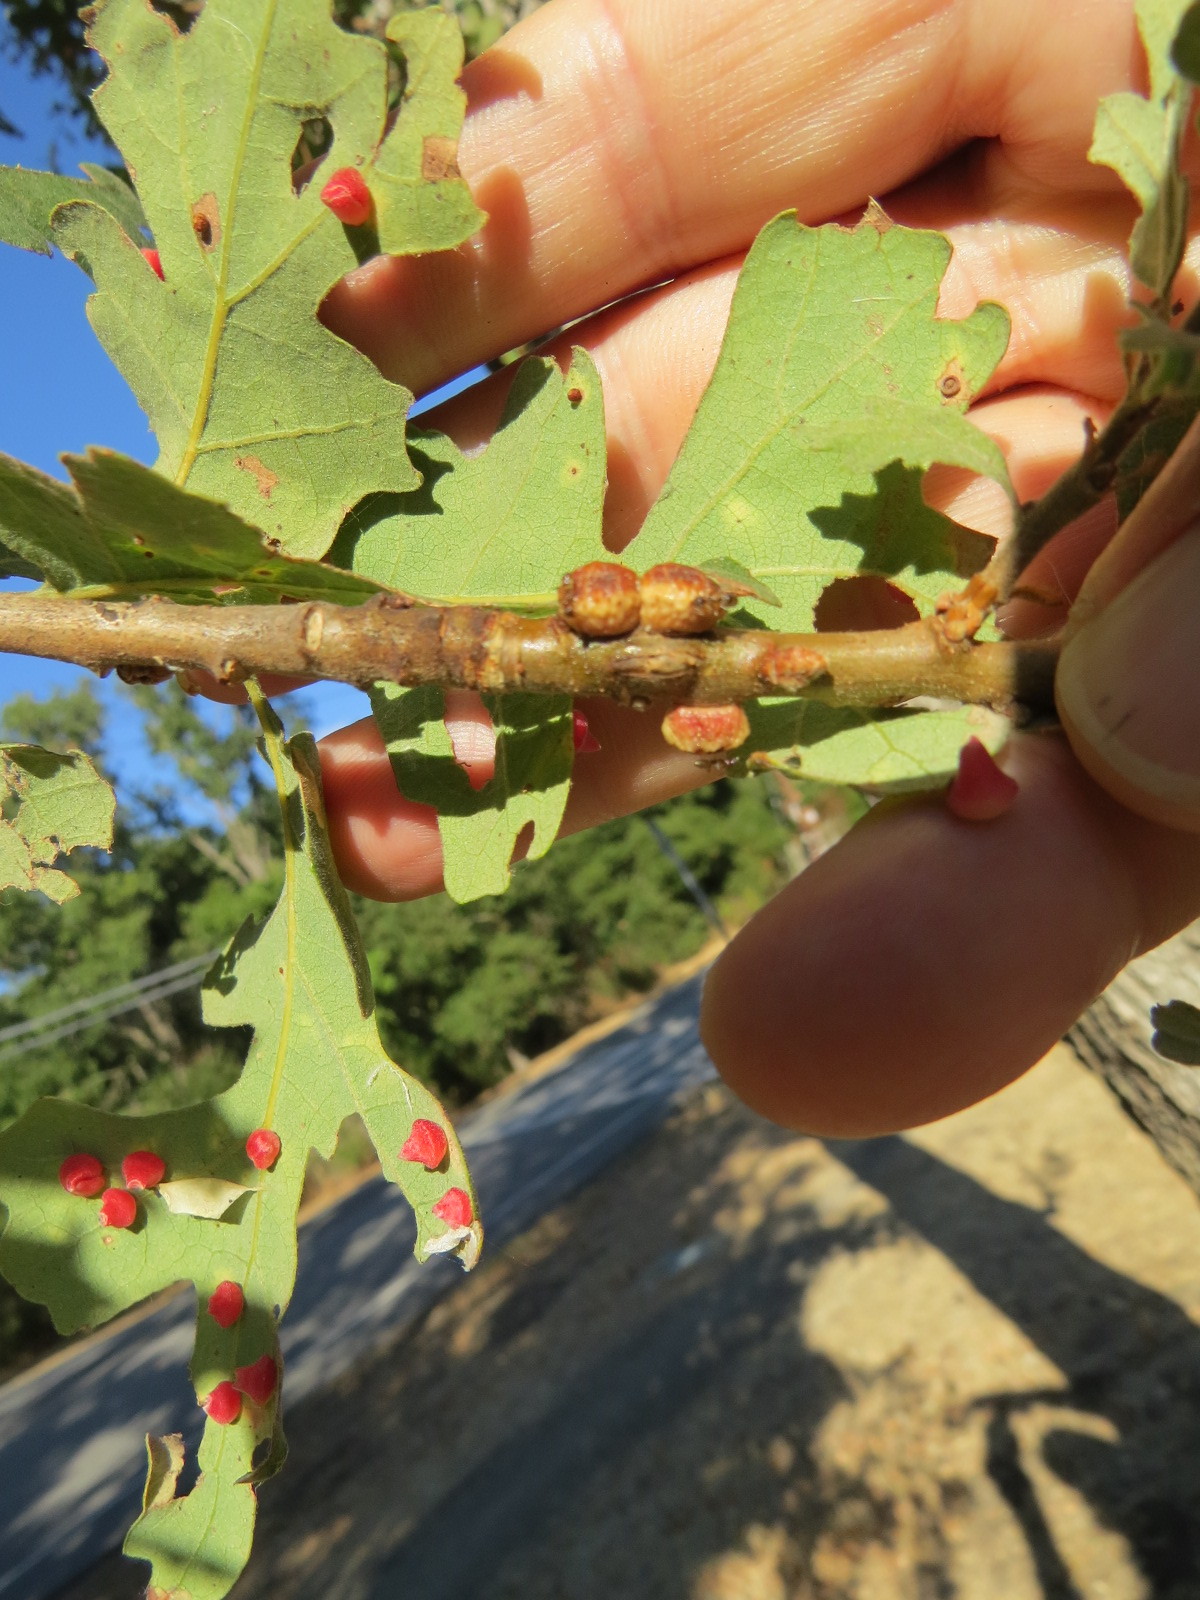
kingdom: Animalia
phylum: Arthropoda
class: Insecta
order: Hymenoptera
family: Cynipidae
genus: Andricus
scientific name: Andricus
